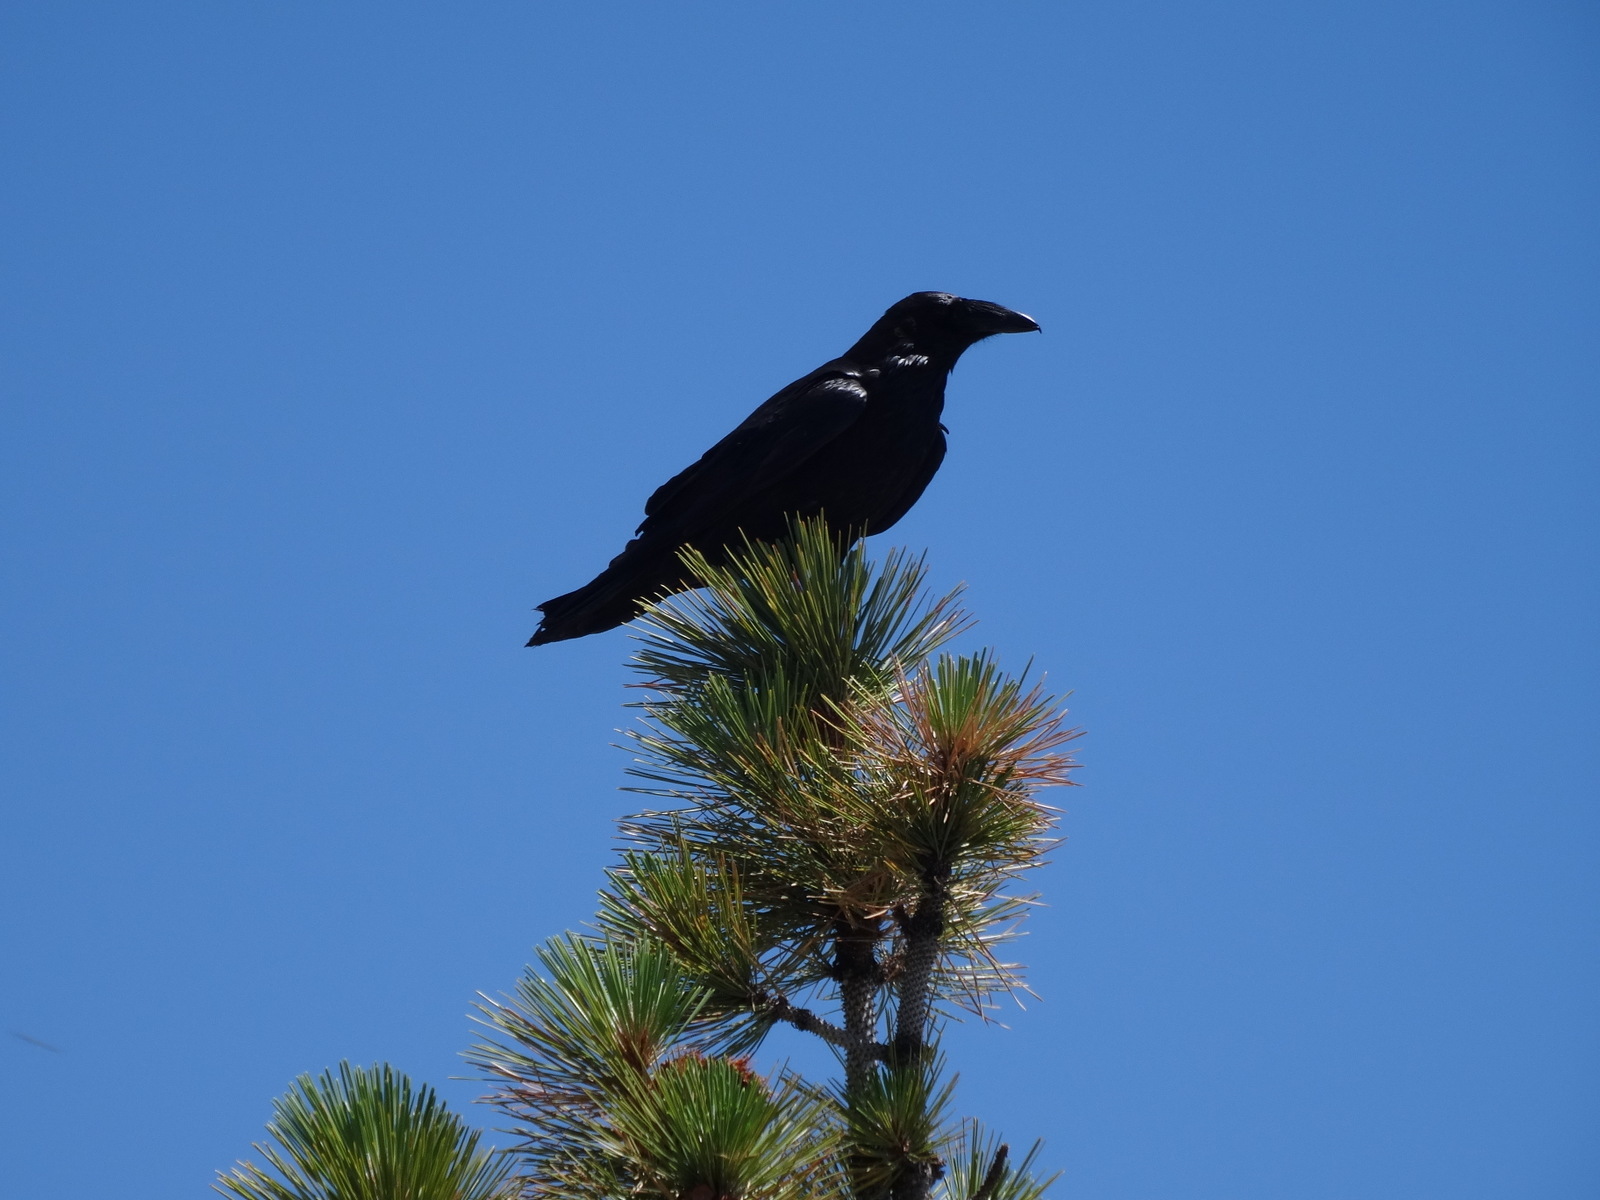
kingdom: Animalia
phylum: Chordata
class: Aves
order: Passeriformes
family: Corvidae
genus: Corvus
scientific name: Corvus corax
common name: Common raven
